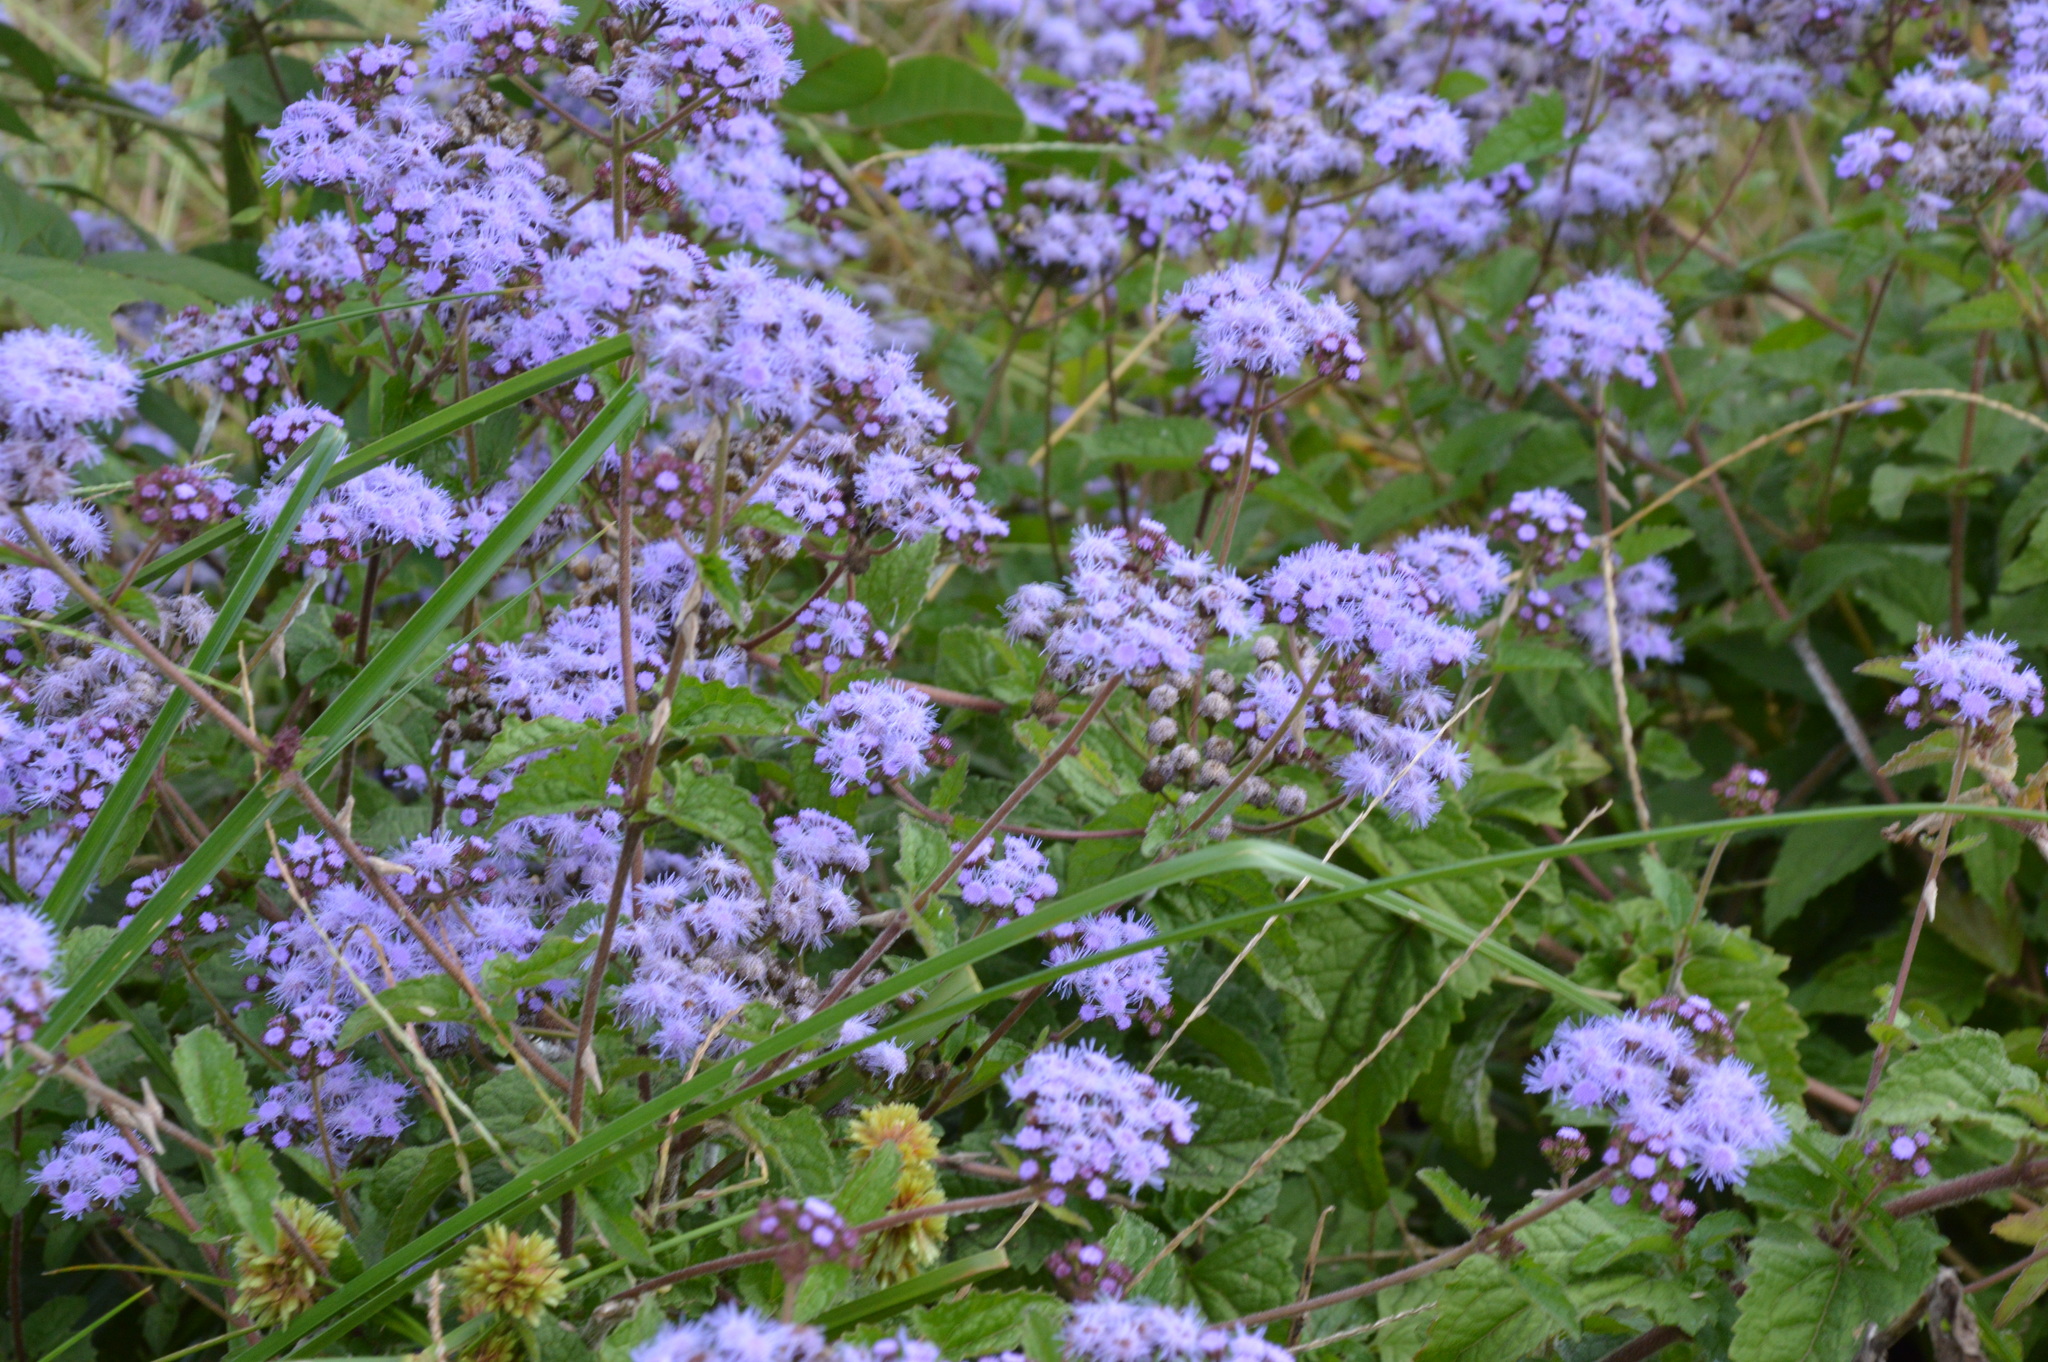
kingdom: Plantae
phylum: Tracheophyta
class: Magnoliopsida
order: Asterales
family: Asteraceae
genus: Conoclinium
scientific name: Conoclinium coelestinum
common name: Blue mistflower
